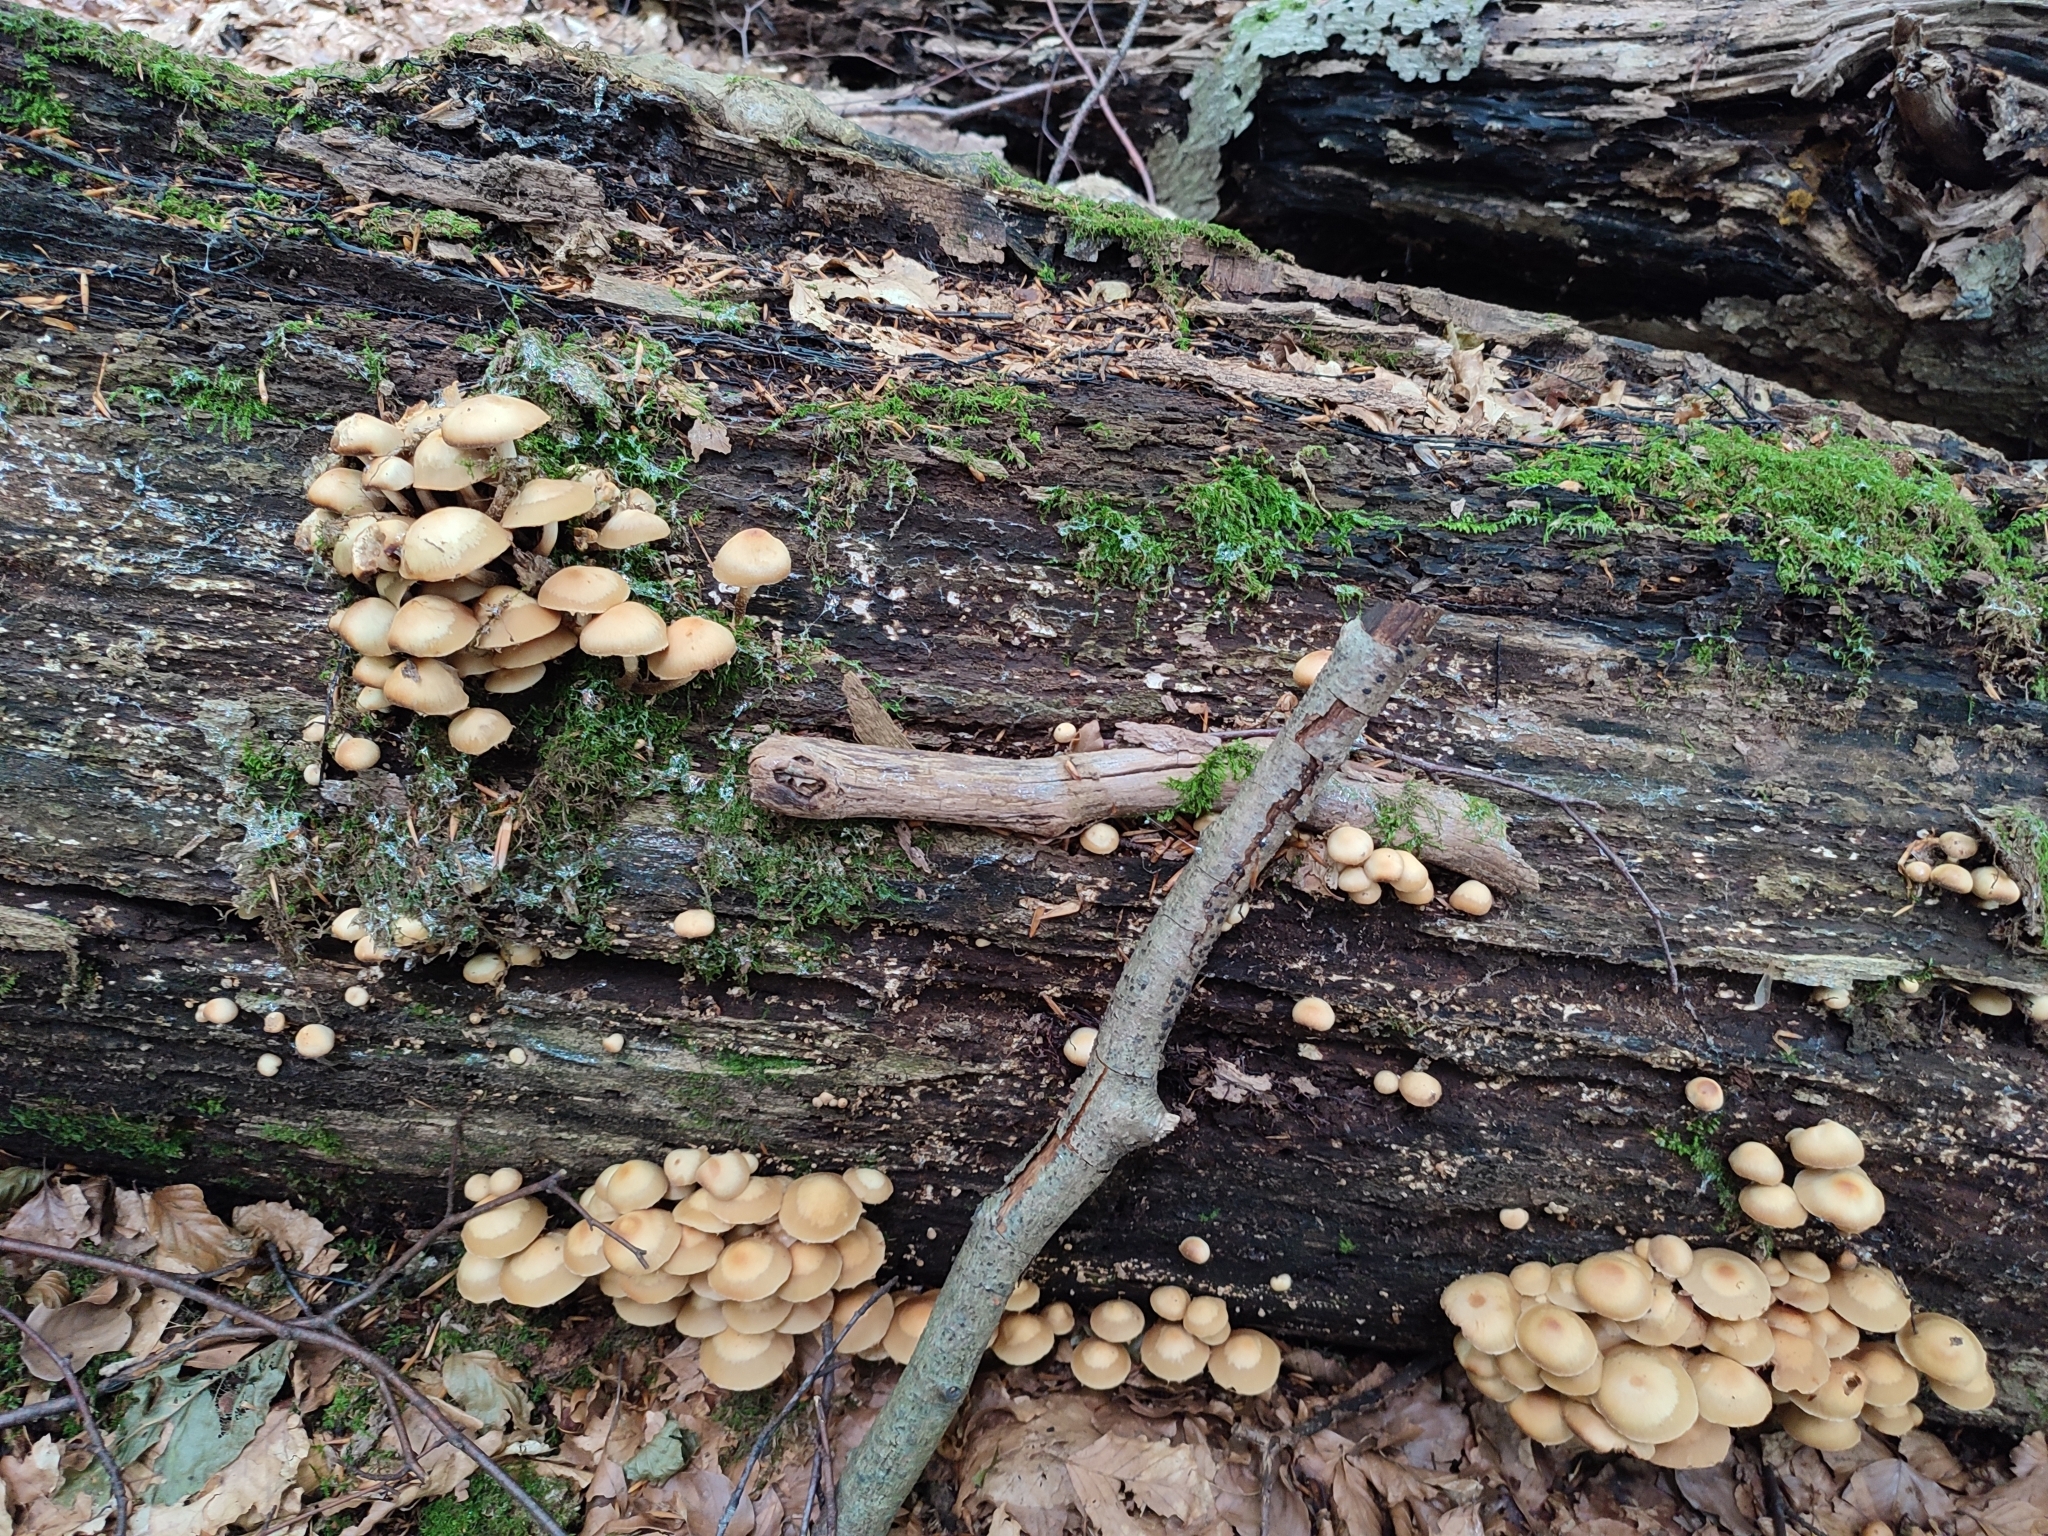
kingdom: Fungi
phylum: Basidiomycota
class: Agaricomycetes
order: Agaricales
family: Strophariaceae
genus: Kuehneromyces
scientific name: Kuehneromyces mutabilis
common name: Sheathed woodtuft
